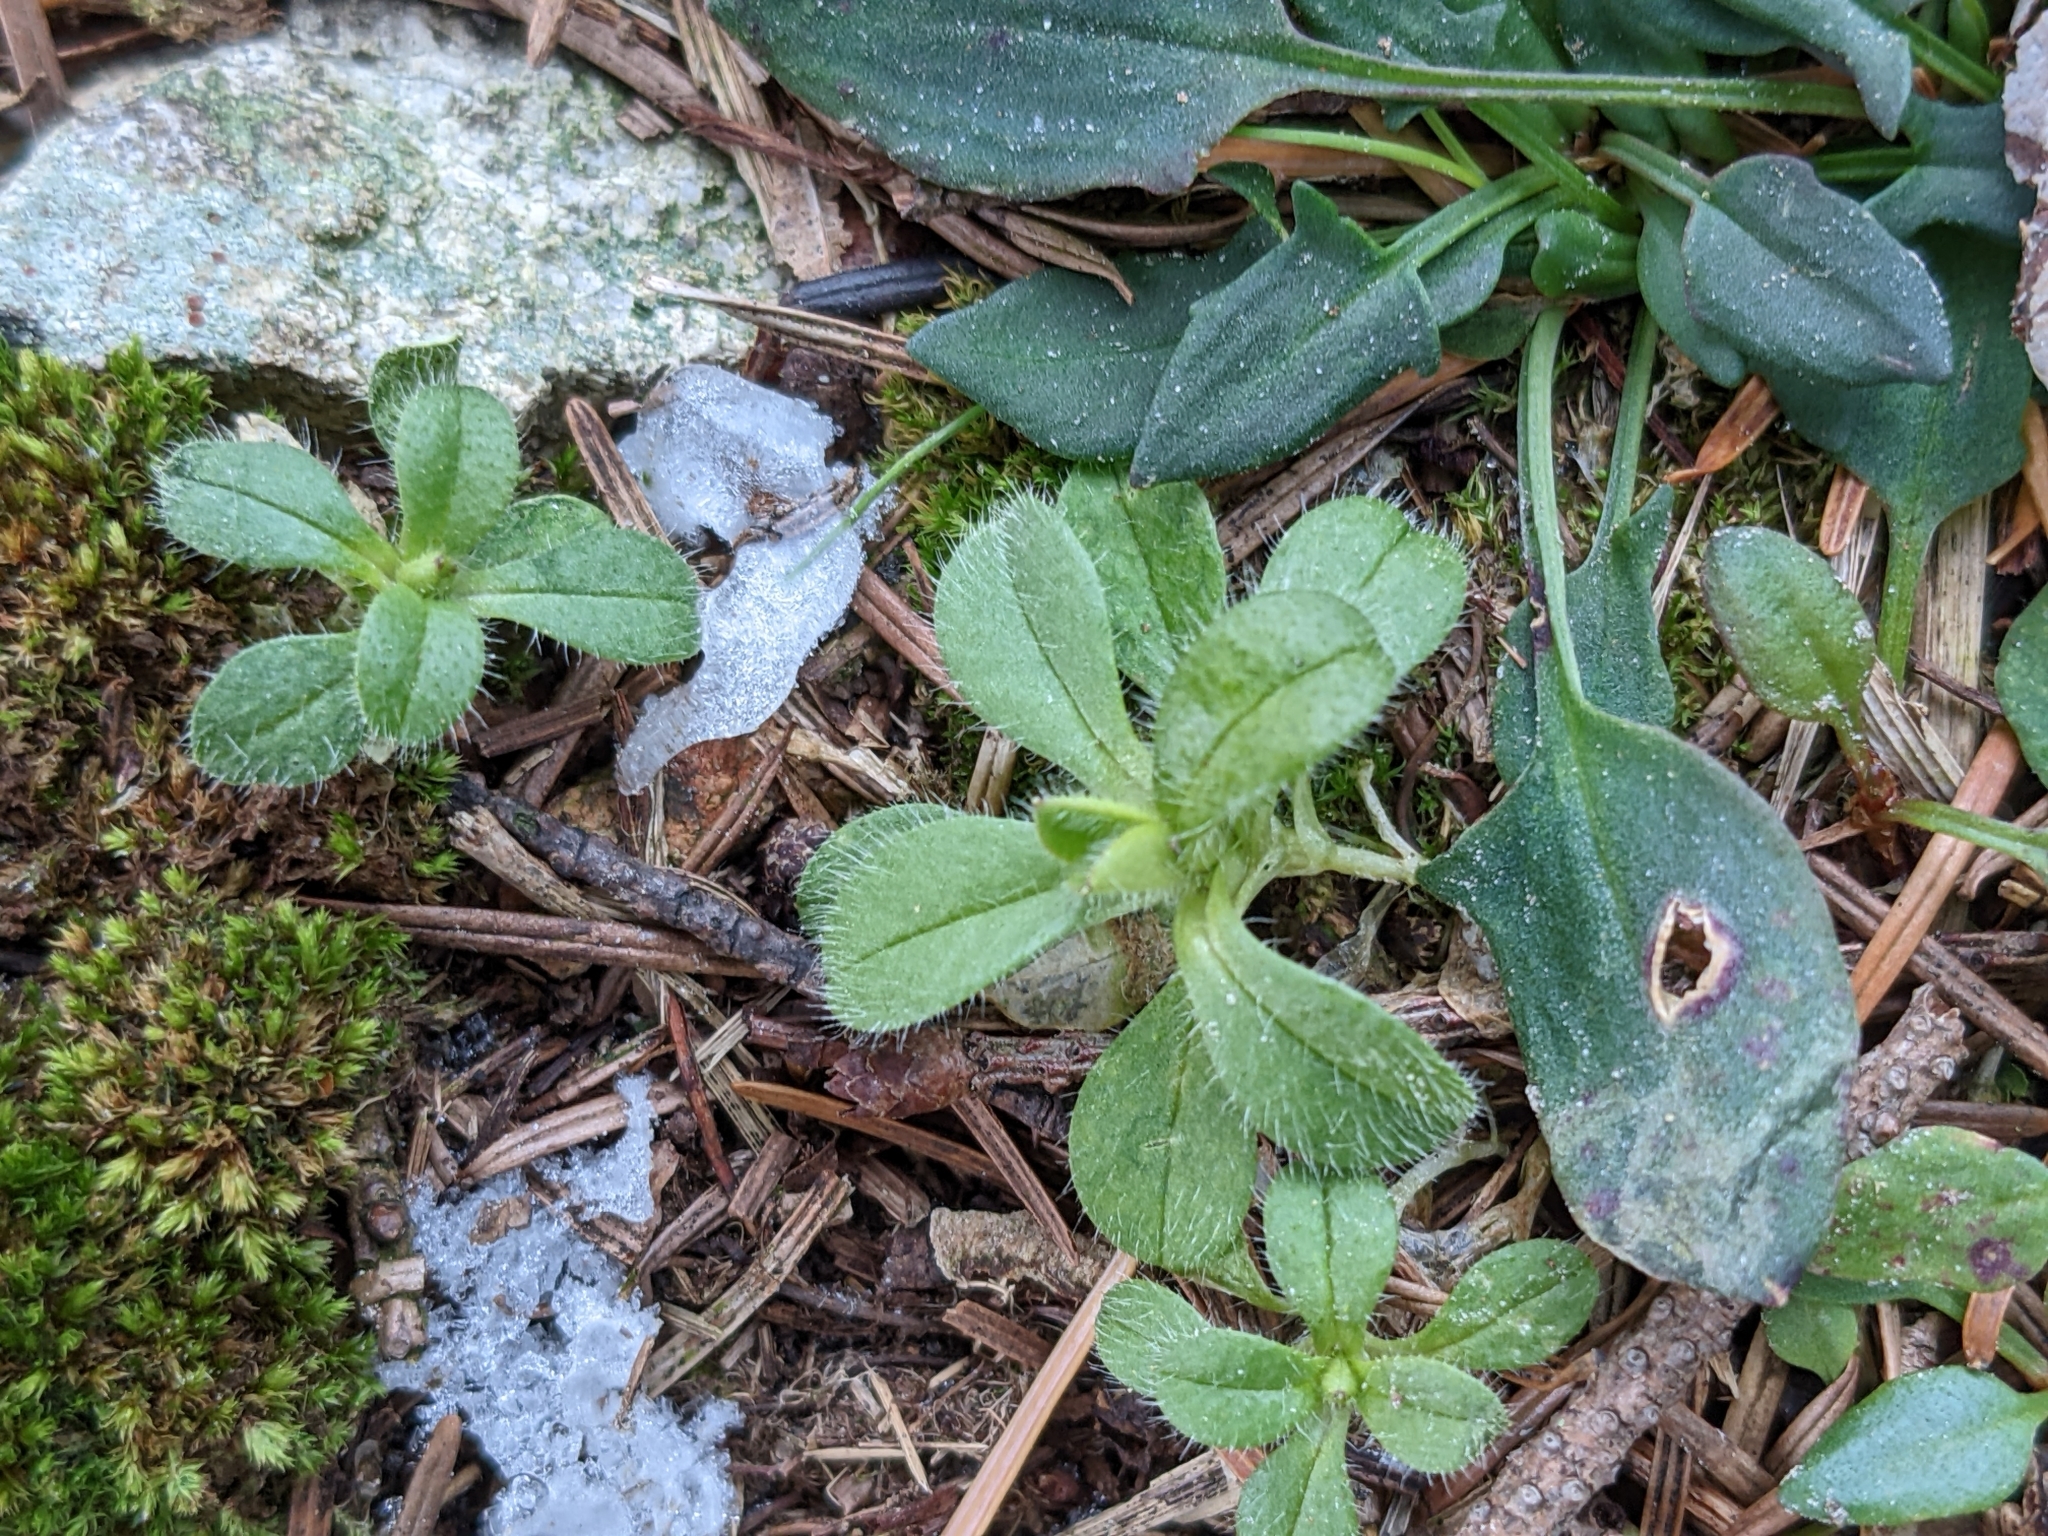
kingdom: Plantae
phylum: Tracheophyta
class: Magnoliopsida
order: Caryophyllales
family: Caryophyllaceae
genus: Cerastium
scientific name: Cerastium fontanum
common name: Common mouse-ear
